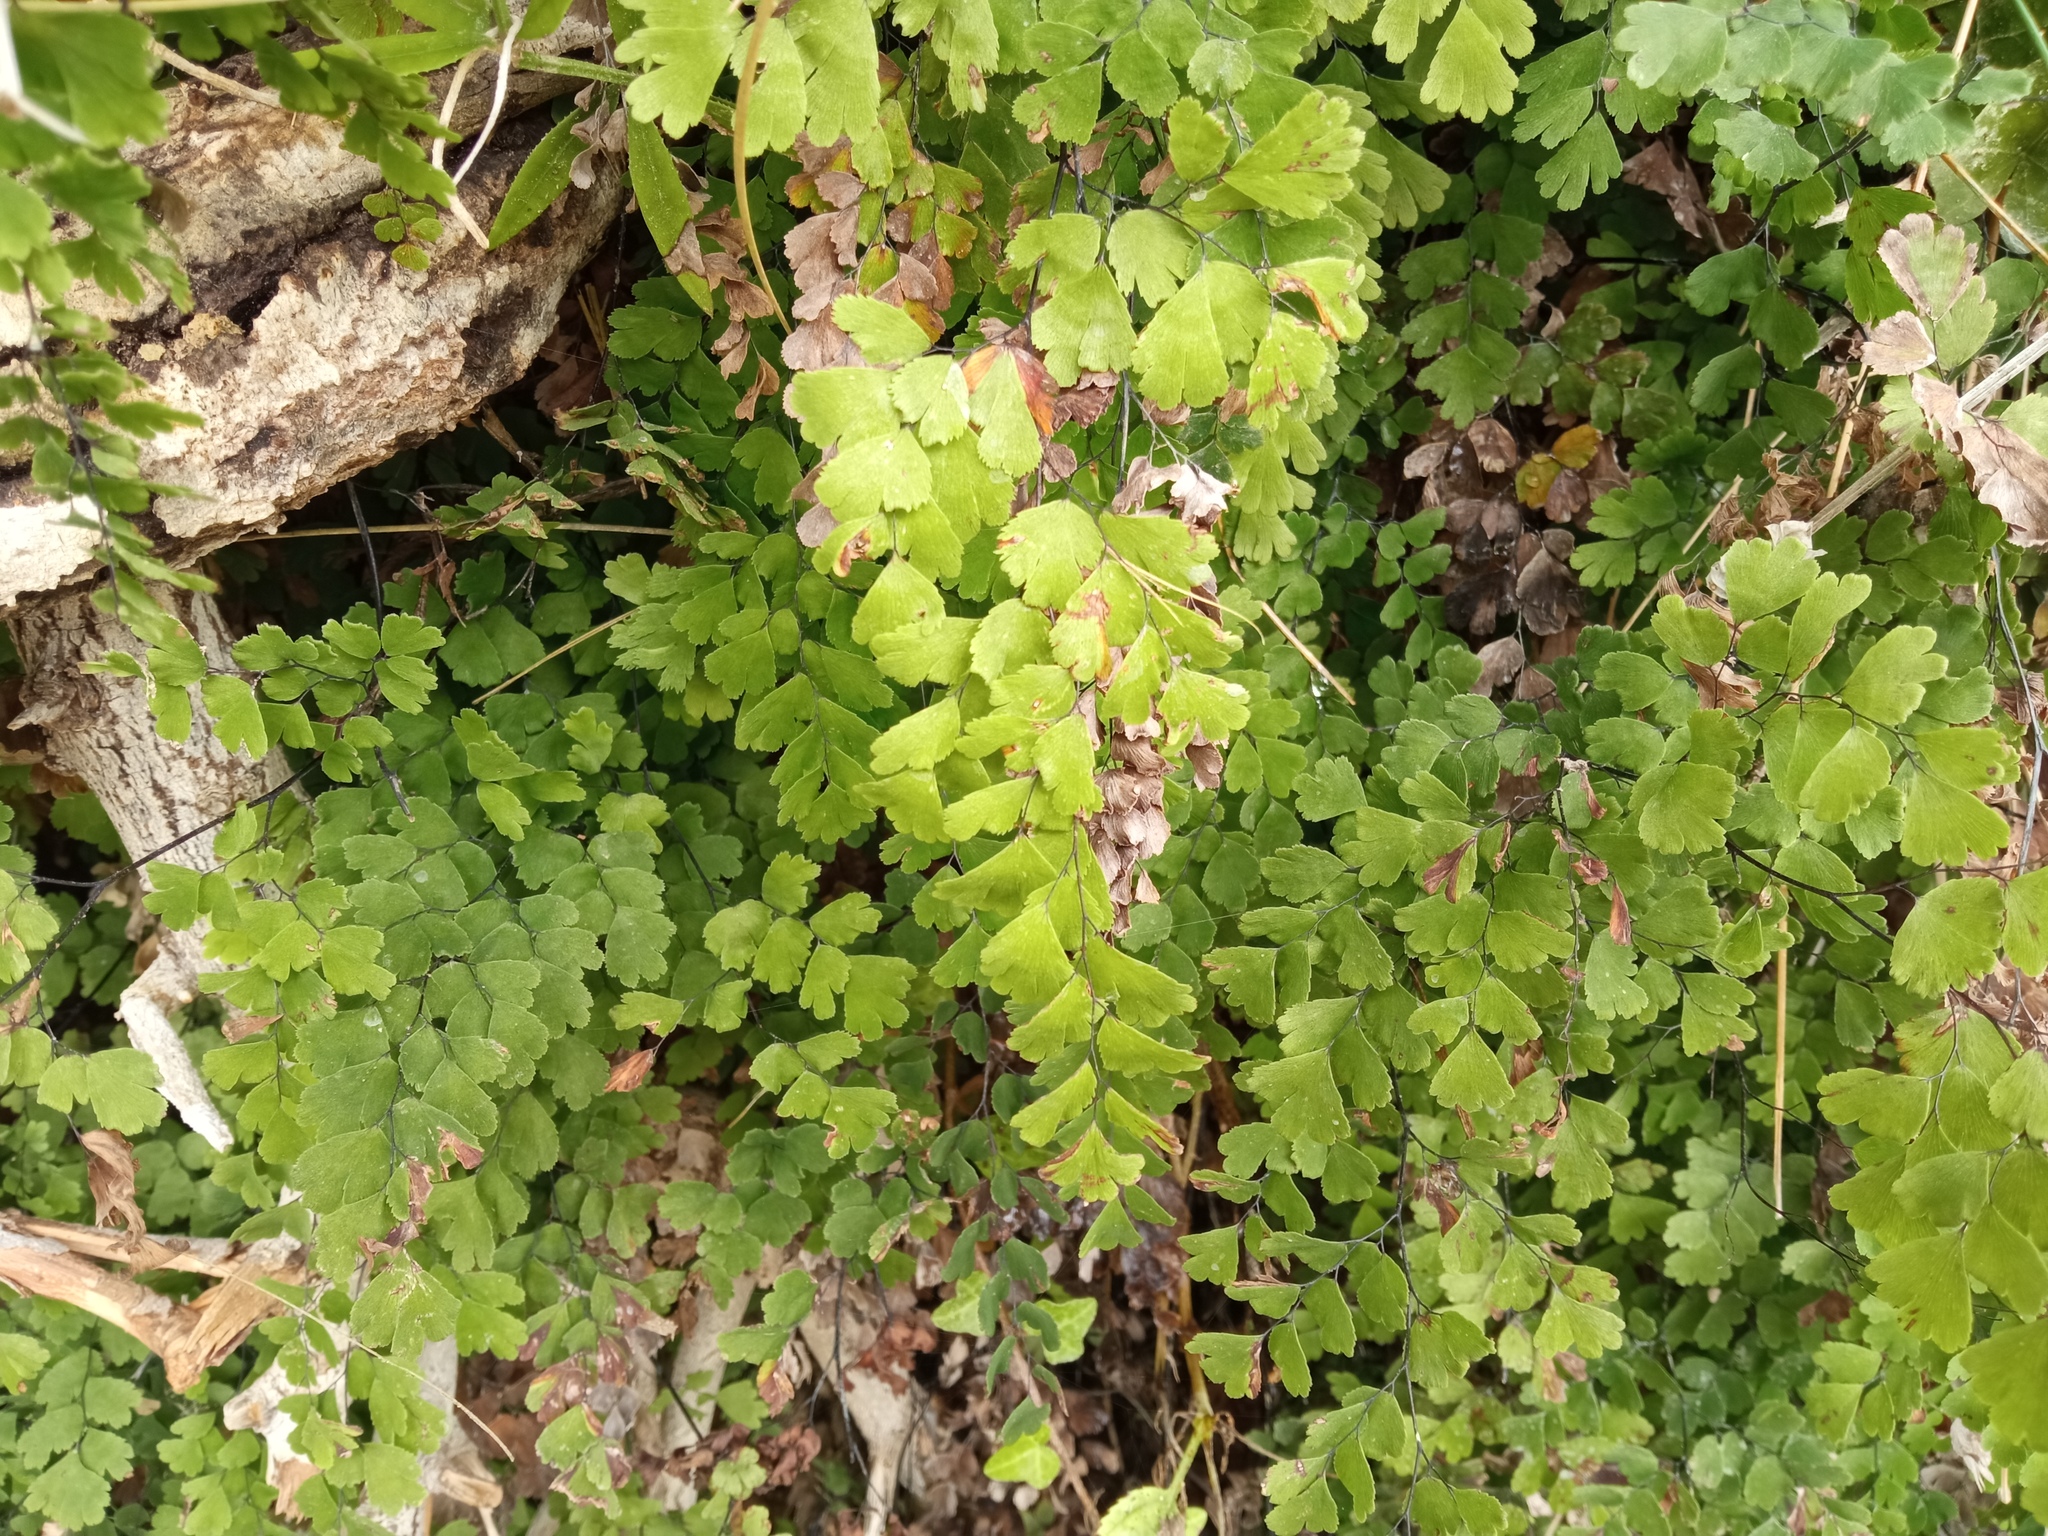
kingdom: Plantae
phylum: Tracheophyta
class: Polypodiopsida
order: Polypodiales
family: Pteridaceae
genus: Adiantum
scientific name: Adiantum capillus-veneris
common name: Maidenhair fern
